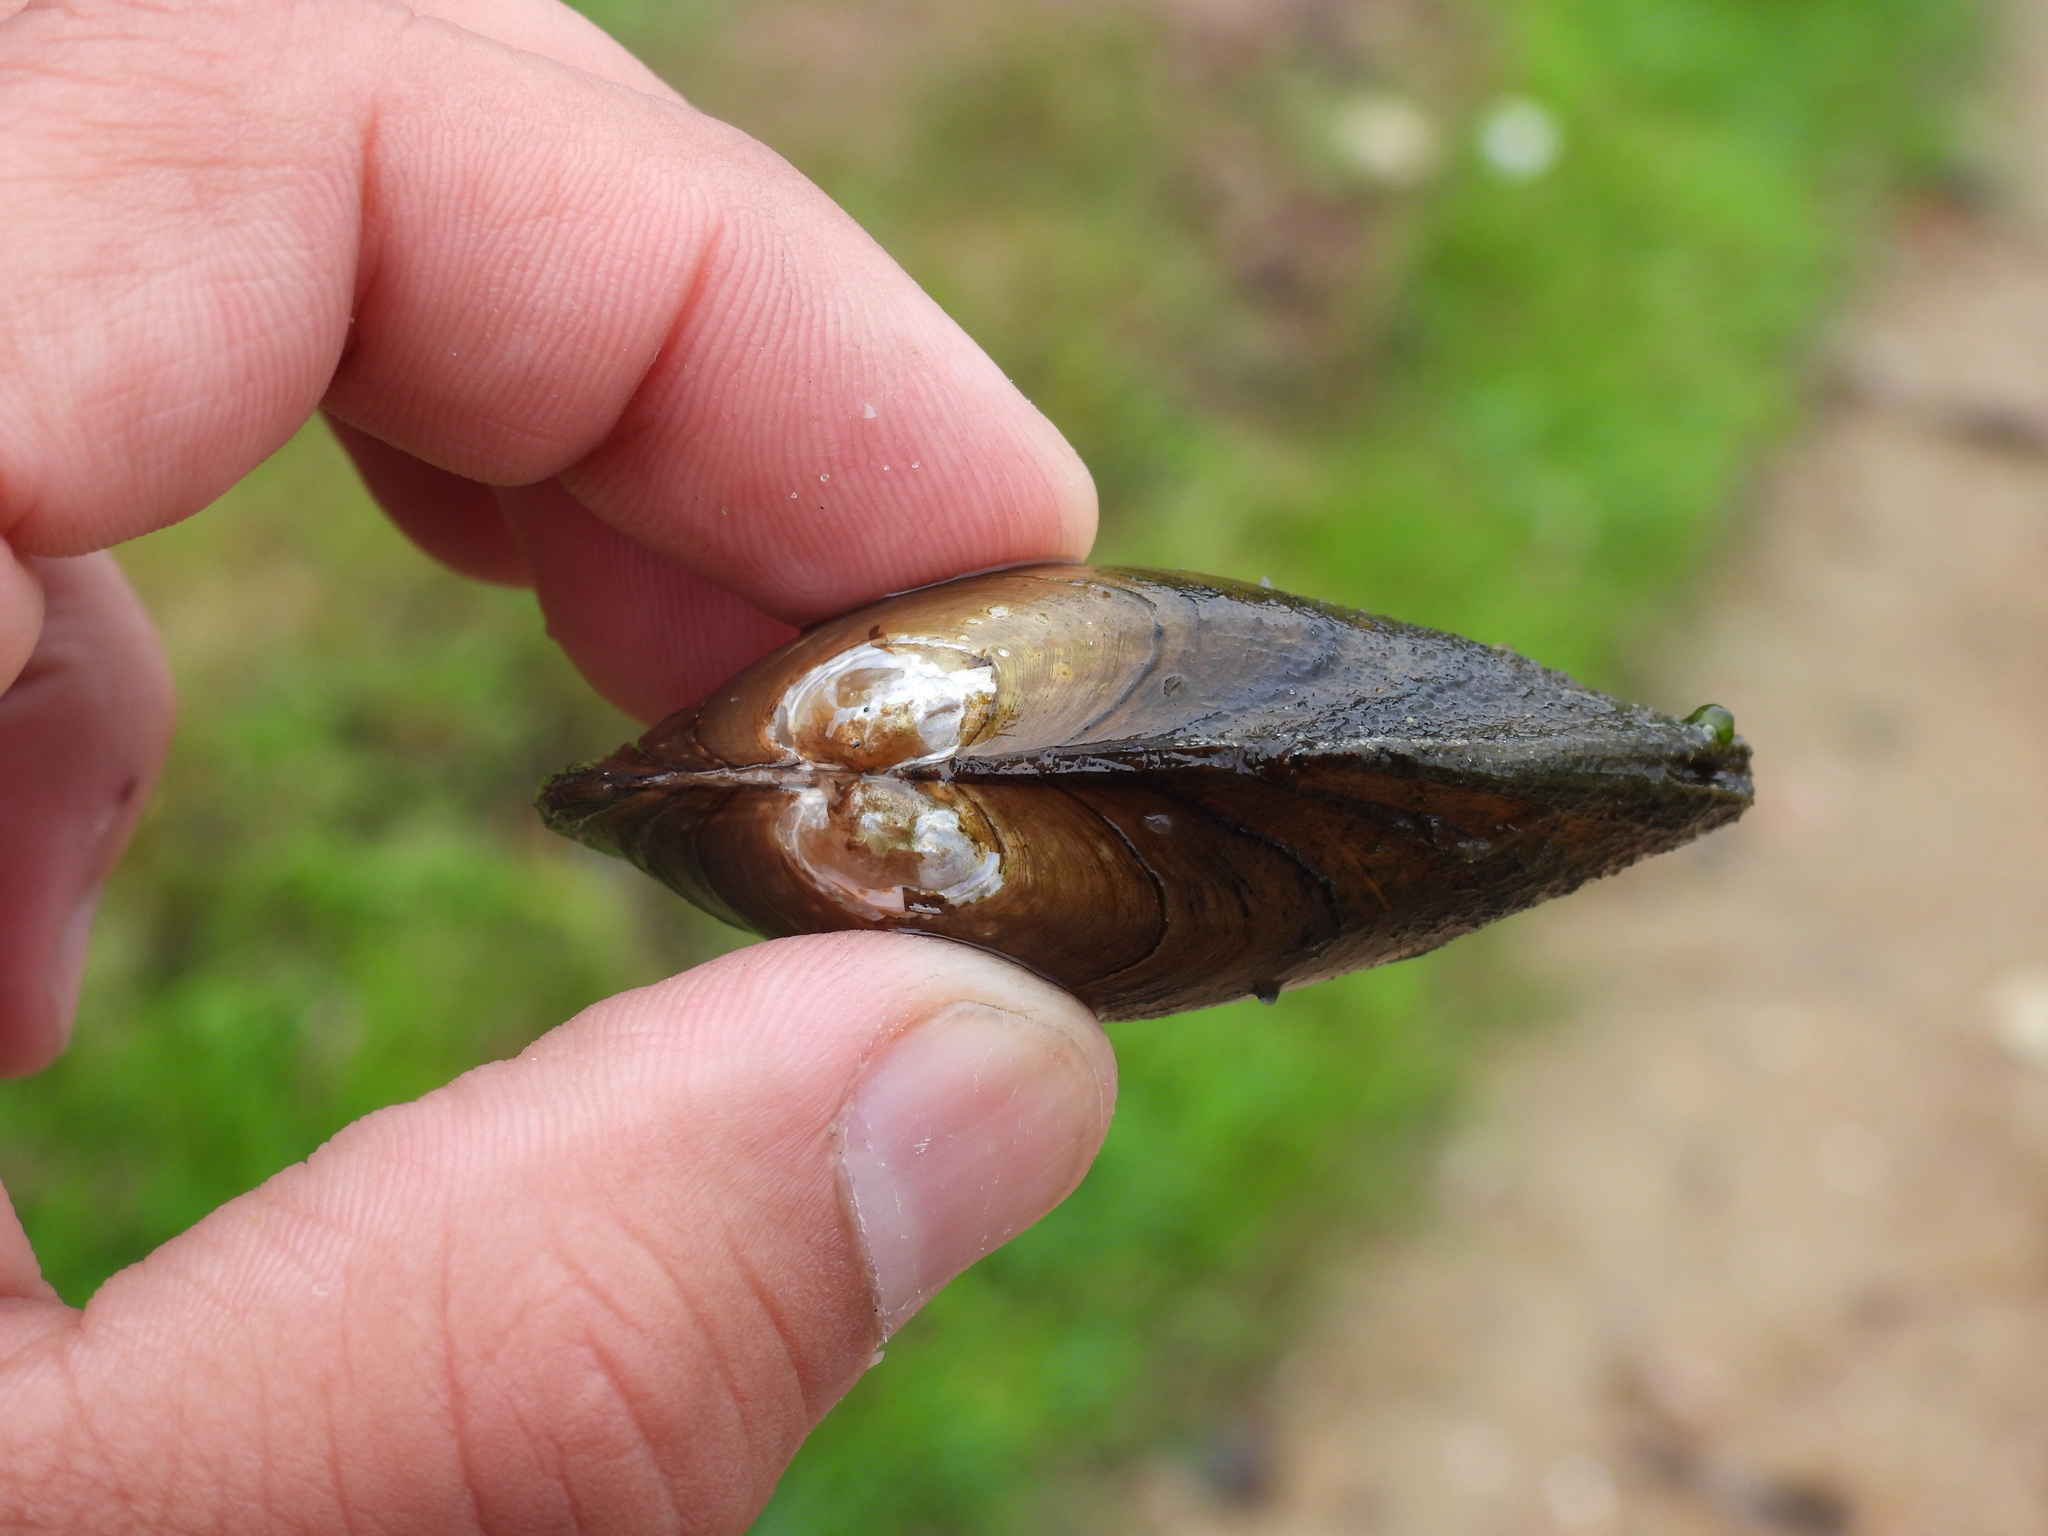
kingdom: Animalia
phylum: Mollusca
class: Bivalvia
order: Unionida
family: Unionidae
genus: Pyganodon
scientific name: Pyganodon grandis
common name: Giant floater
